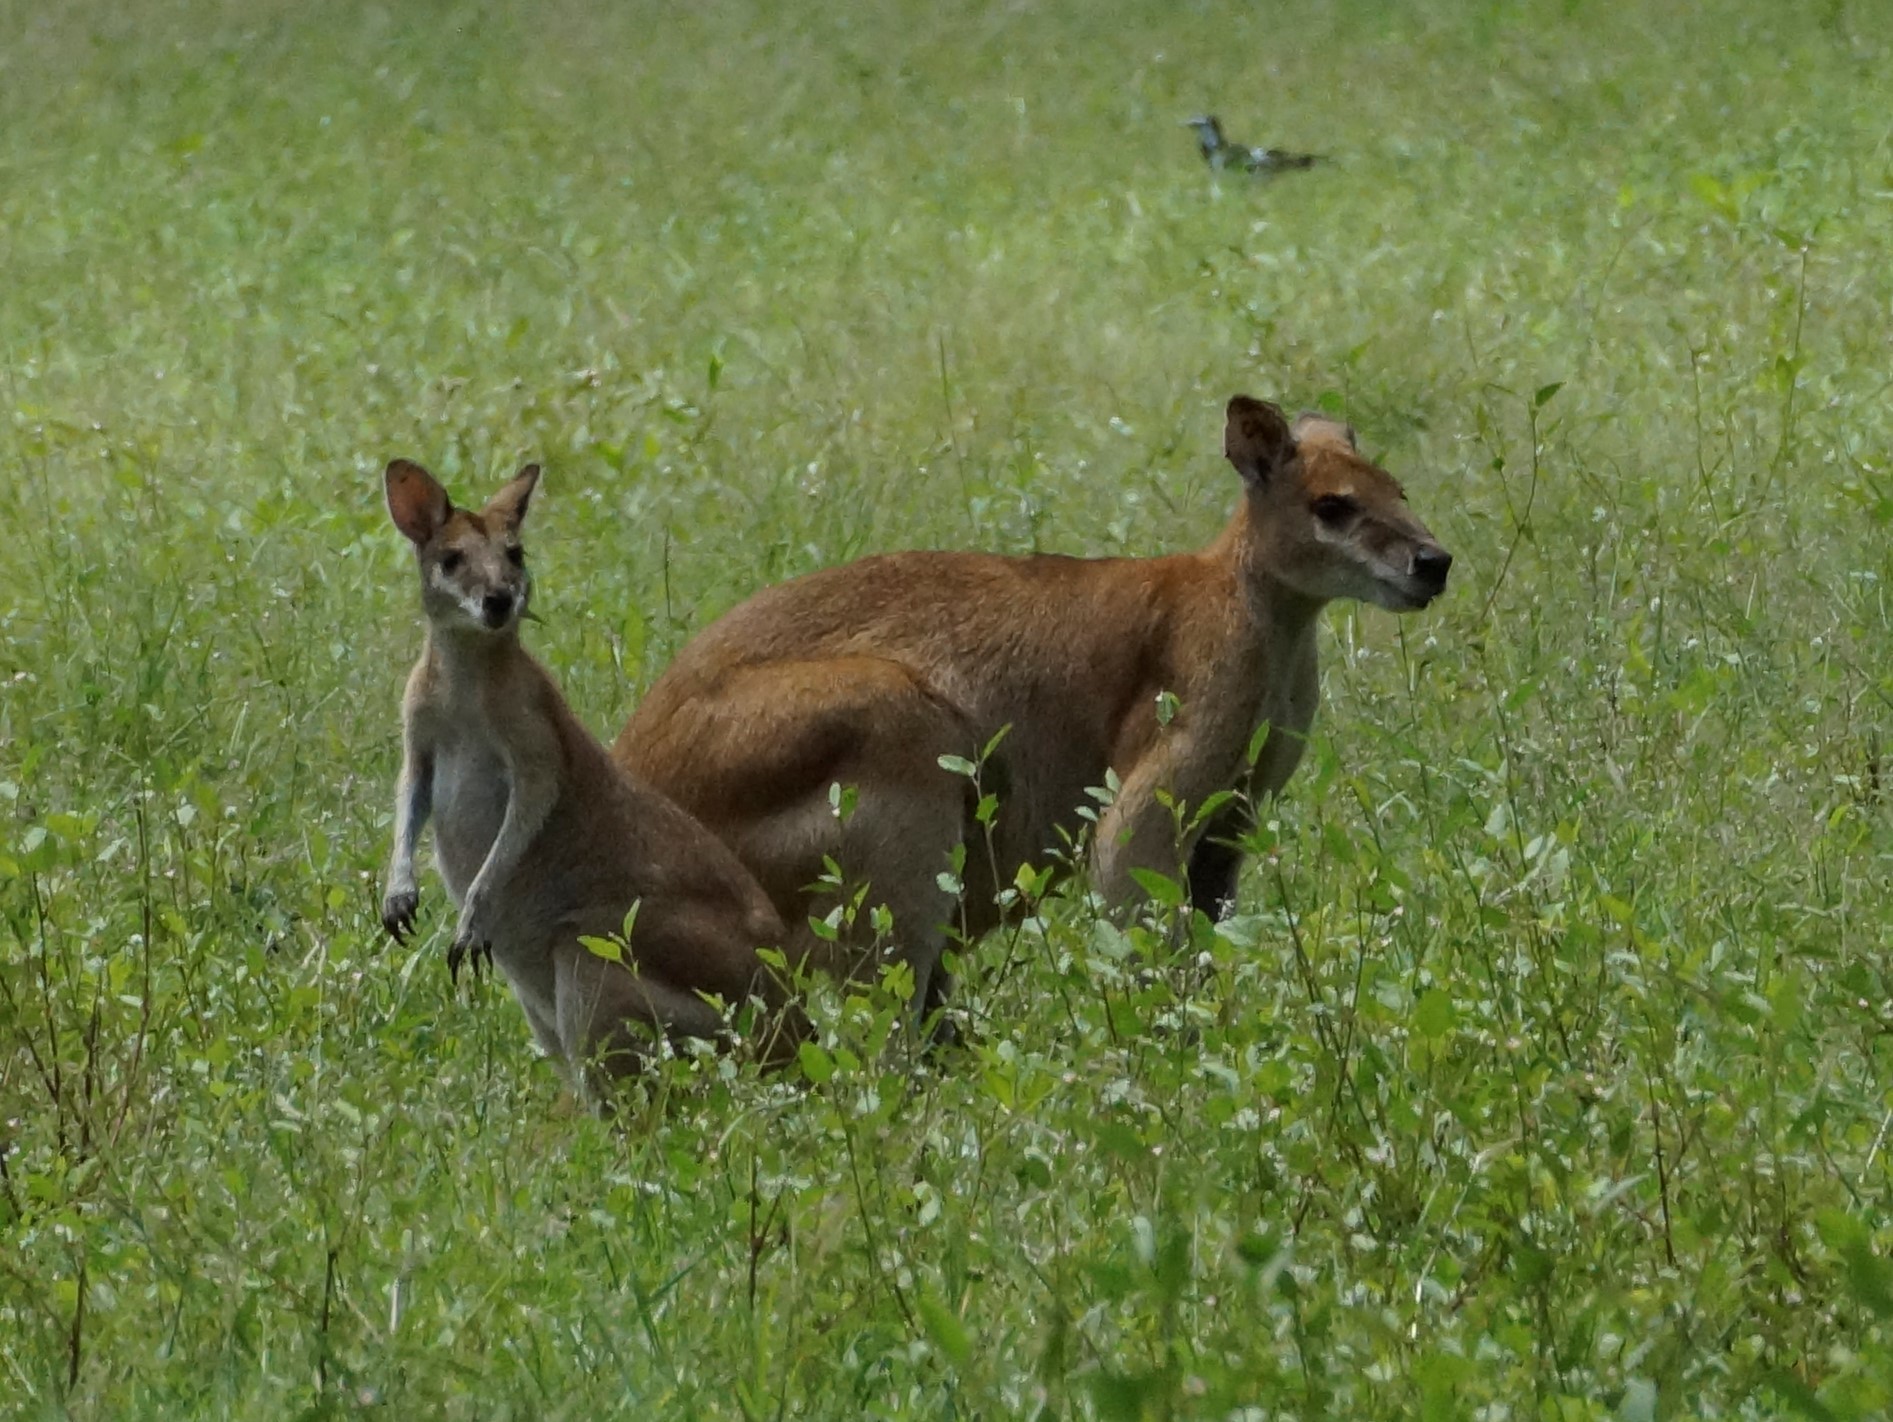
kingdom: Animalia
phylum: Chordata
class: Mammalia
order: Diprotodontia
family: Macropodidae
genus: Macropus
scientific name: Macropus agilis
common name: Agile wallaby
